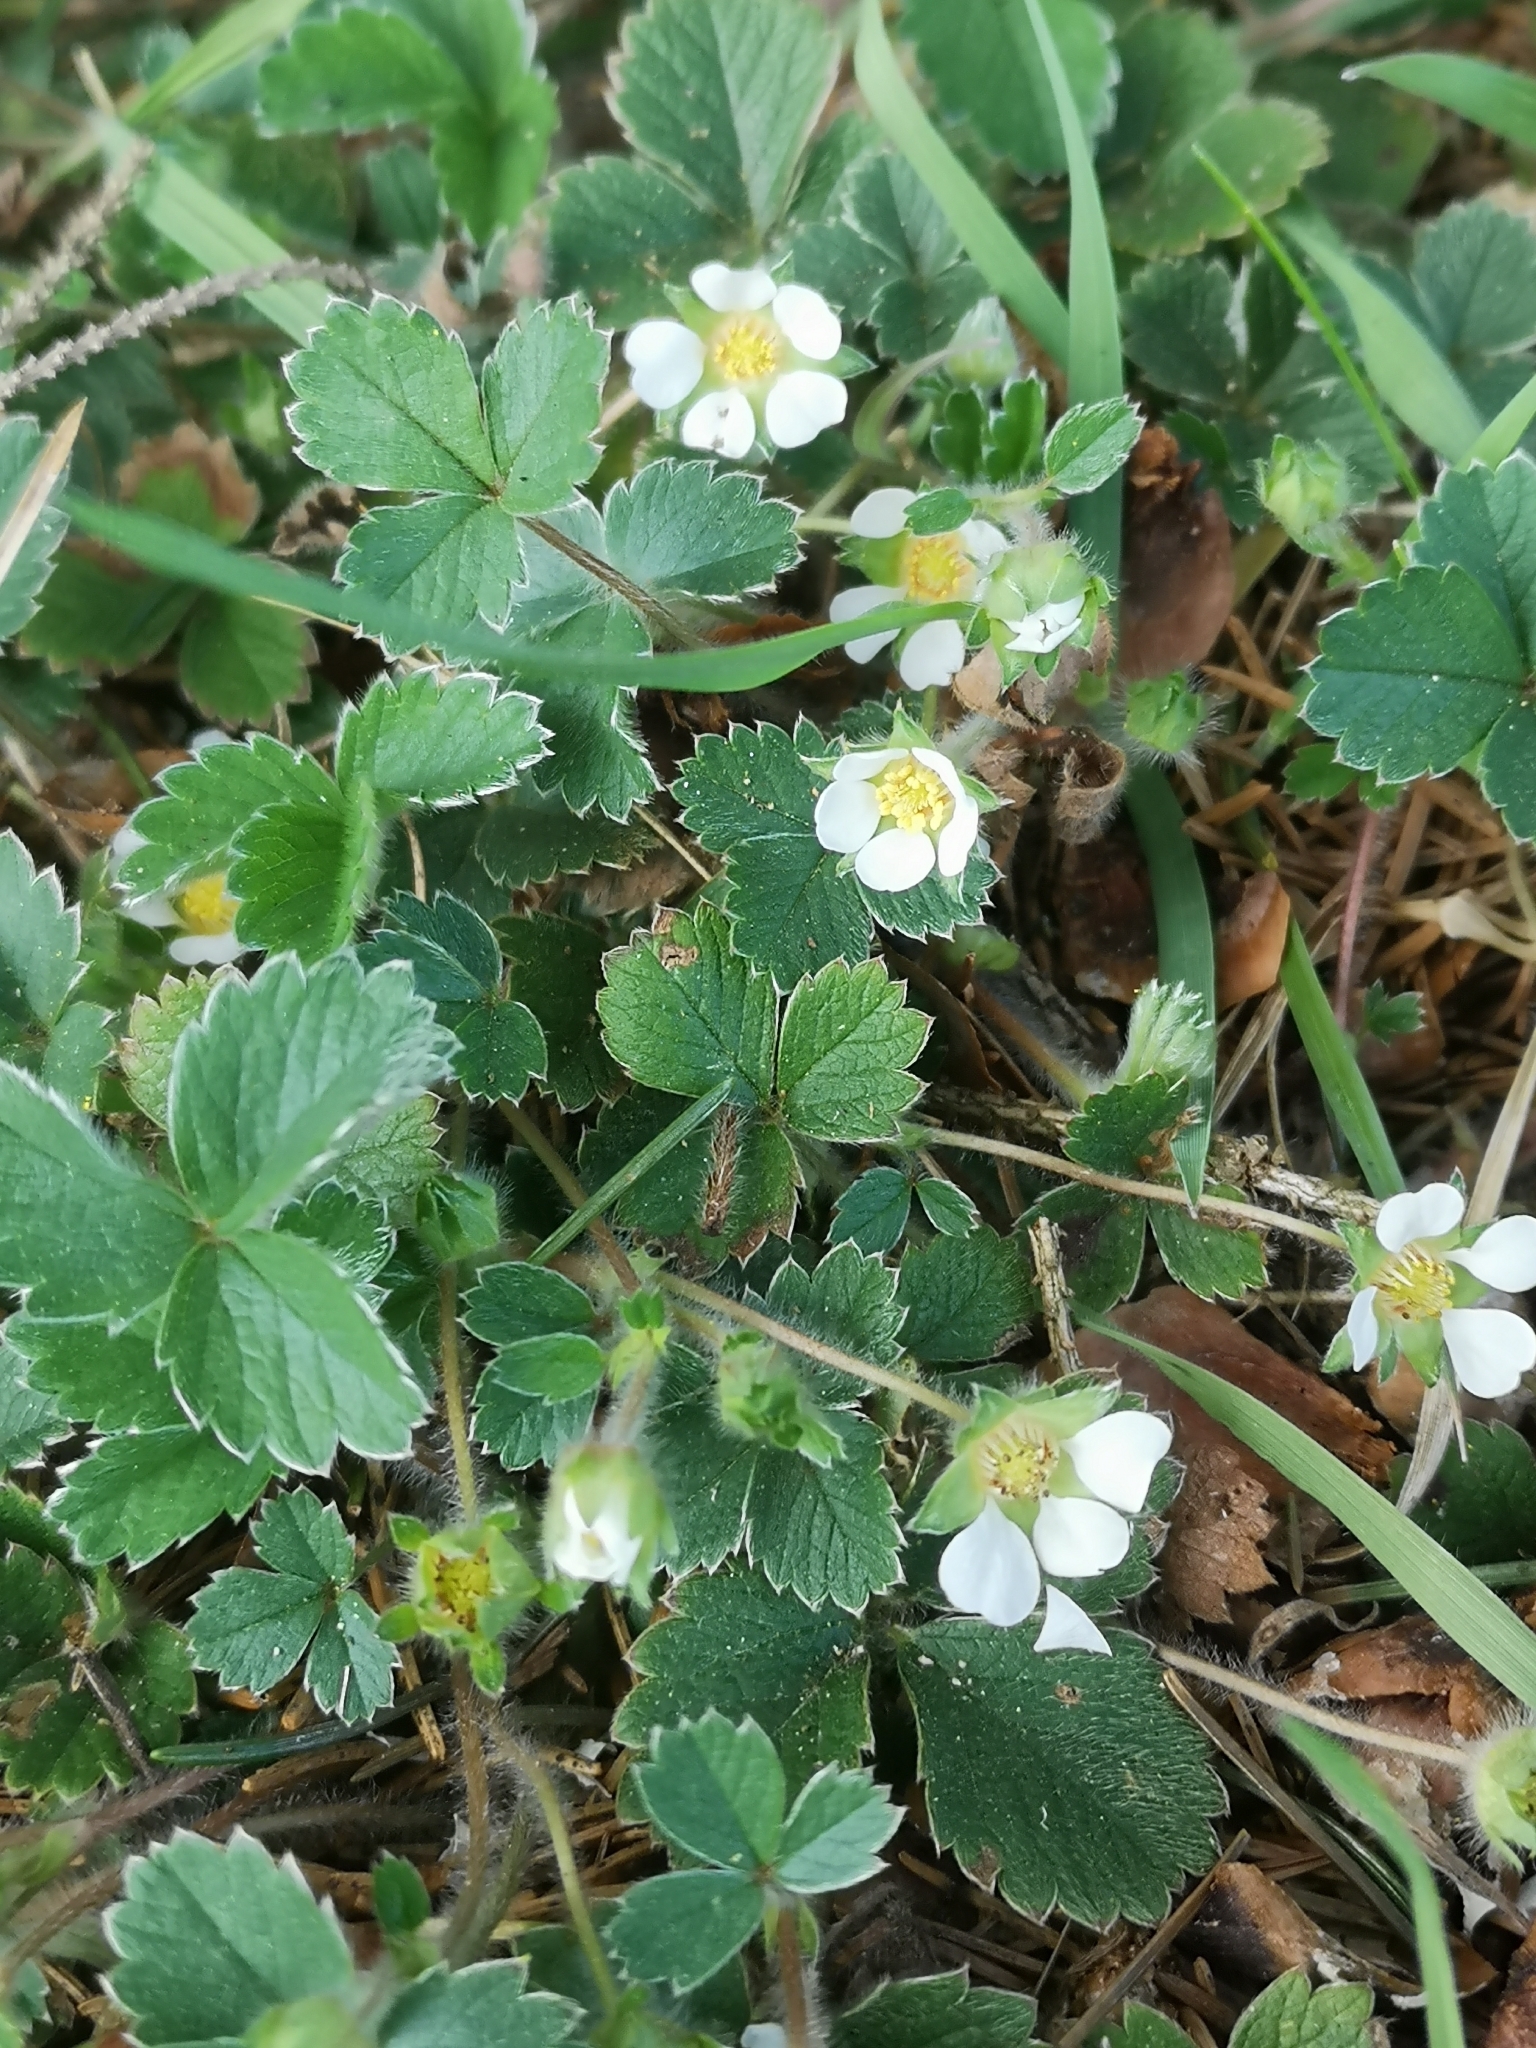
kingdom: Plantae
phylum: Tracheophyta
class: Magnoliopsida
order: Rosales
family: Rosaceae
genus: Potentilla
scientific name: Potentilla sterilis
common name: Barren strawberry
